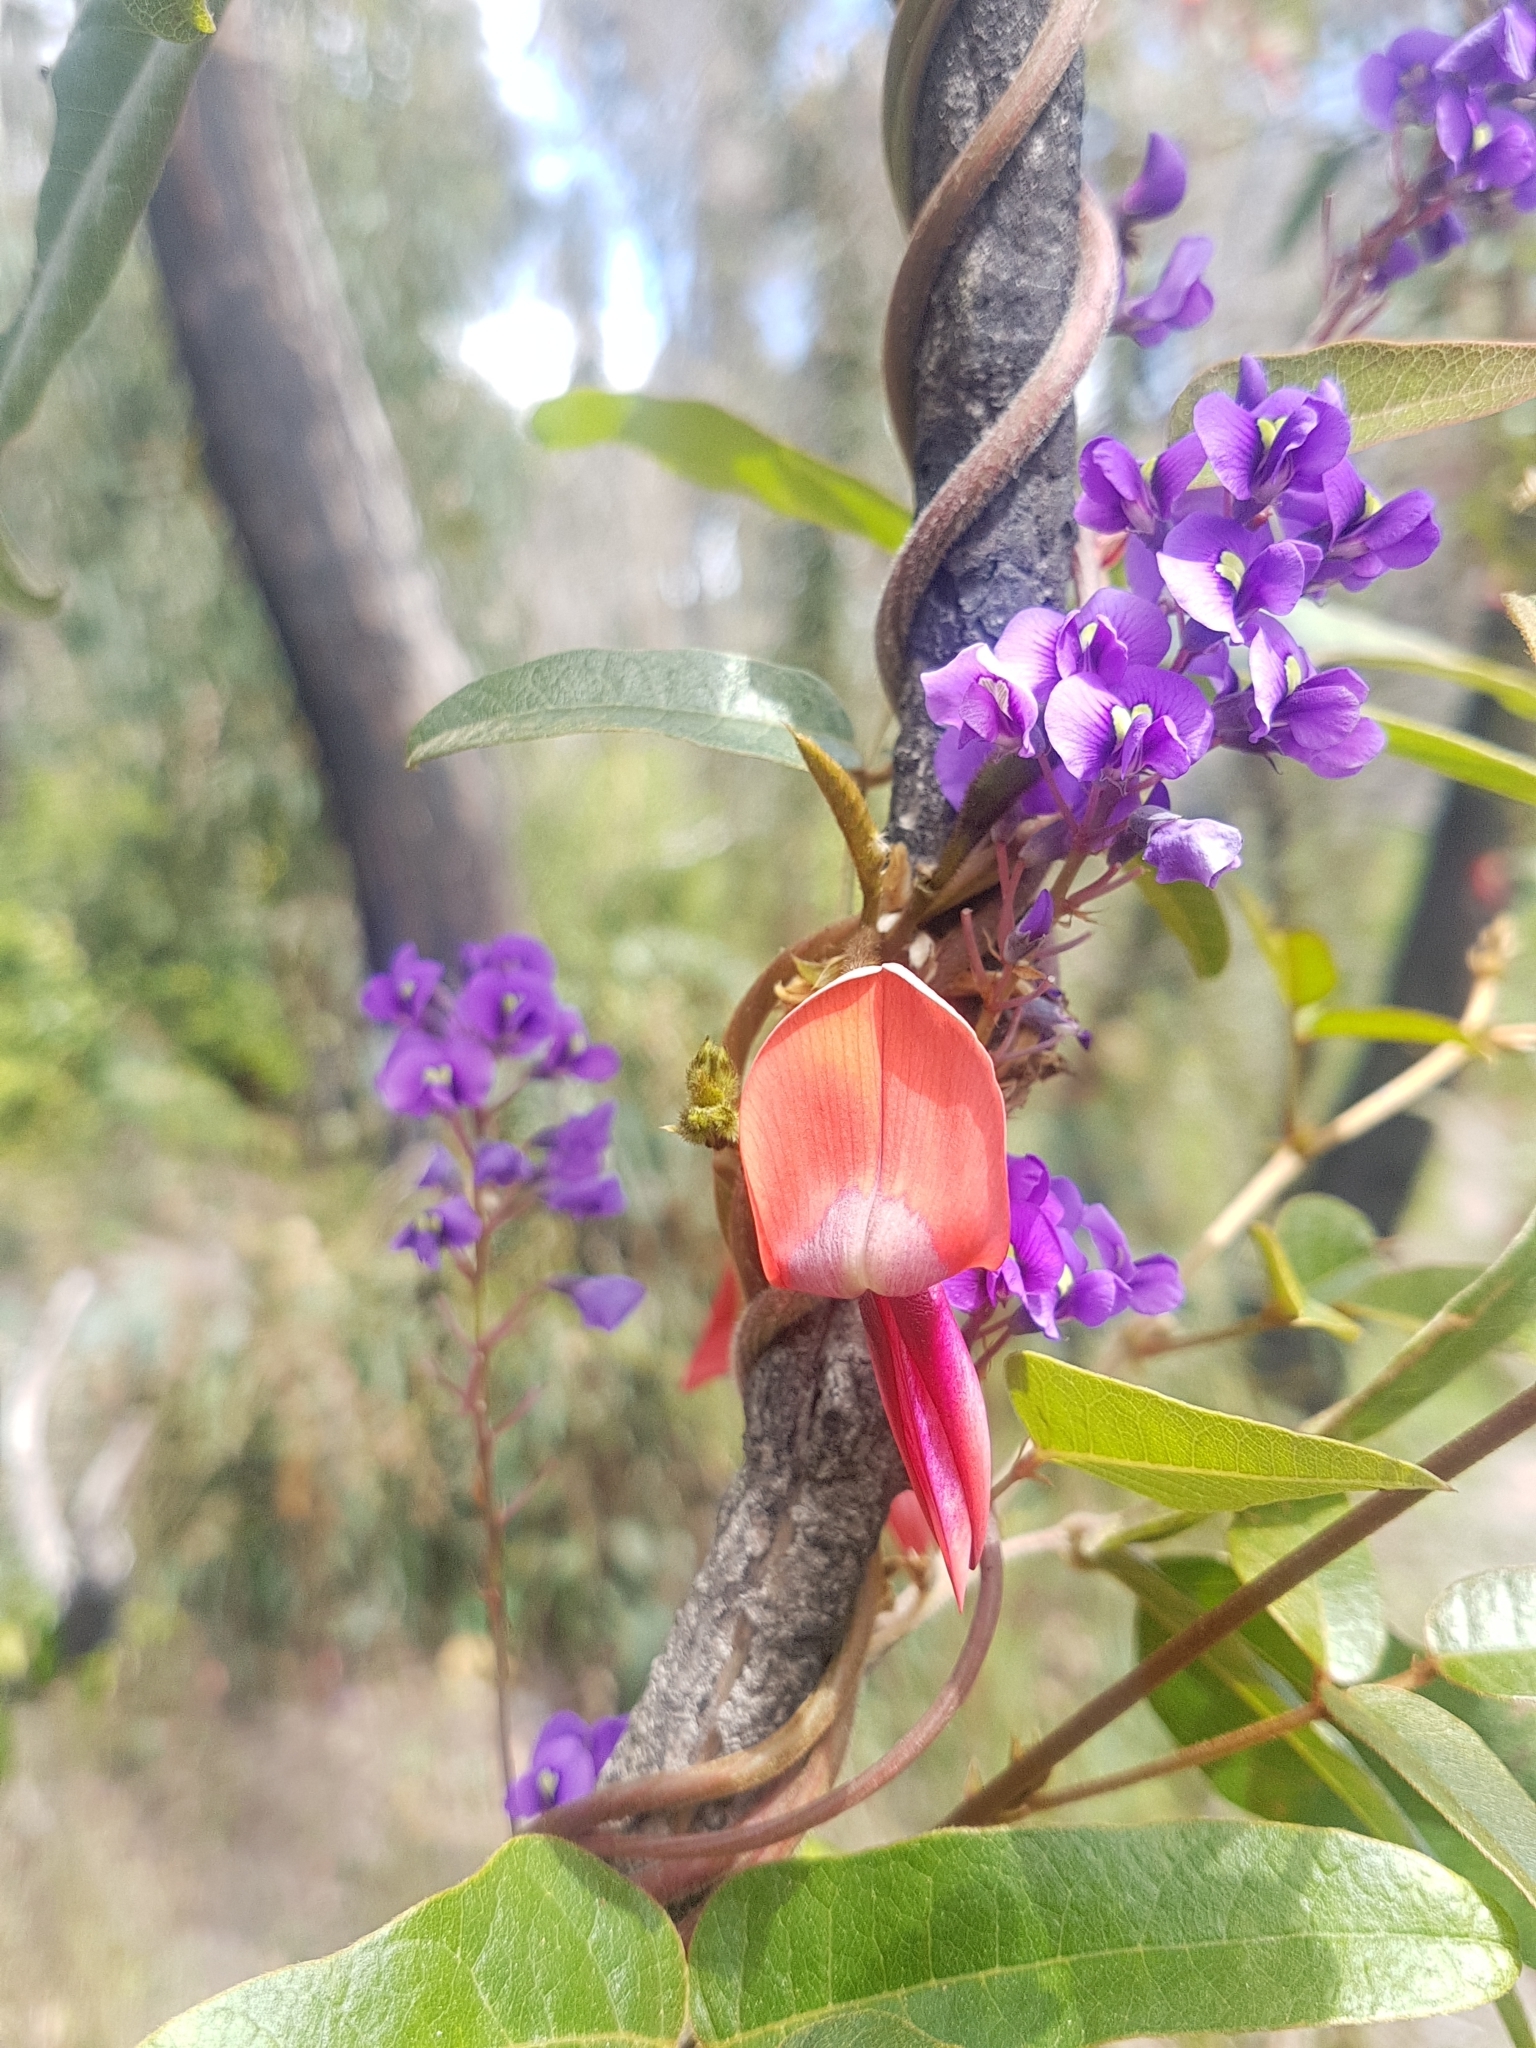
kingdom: Plantae
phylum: Tracheophyta
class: Magnoliopsida
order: Fabales
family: Fabaceae
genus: Kennedia
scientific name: Kennedia rubicunda
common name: Red kennedy-pea
